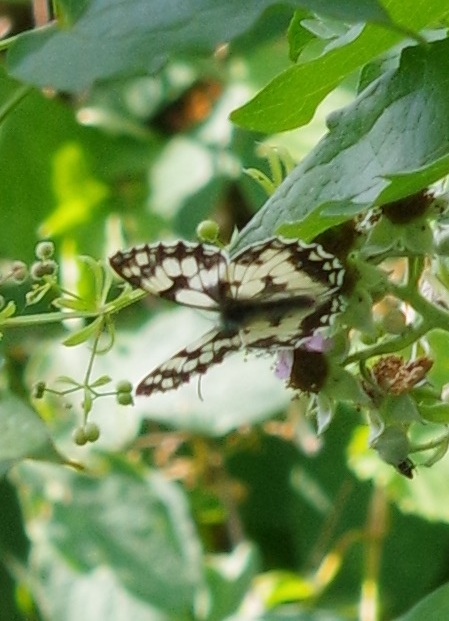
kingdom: Animalia
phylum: Arthropoda
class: Insecta
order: Lepidoptera
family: Nymphalidae
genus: Melanargia
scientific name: Melanargia galathea
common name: Marbled white
